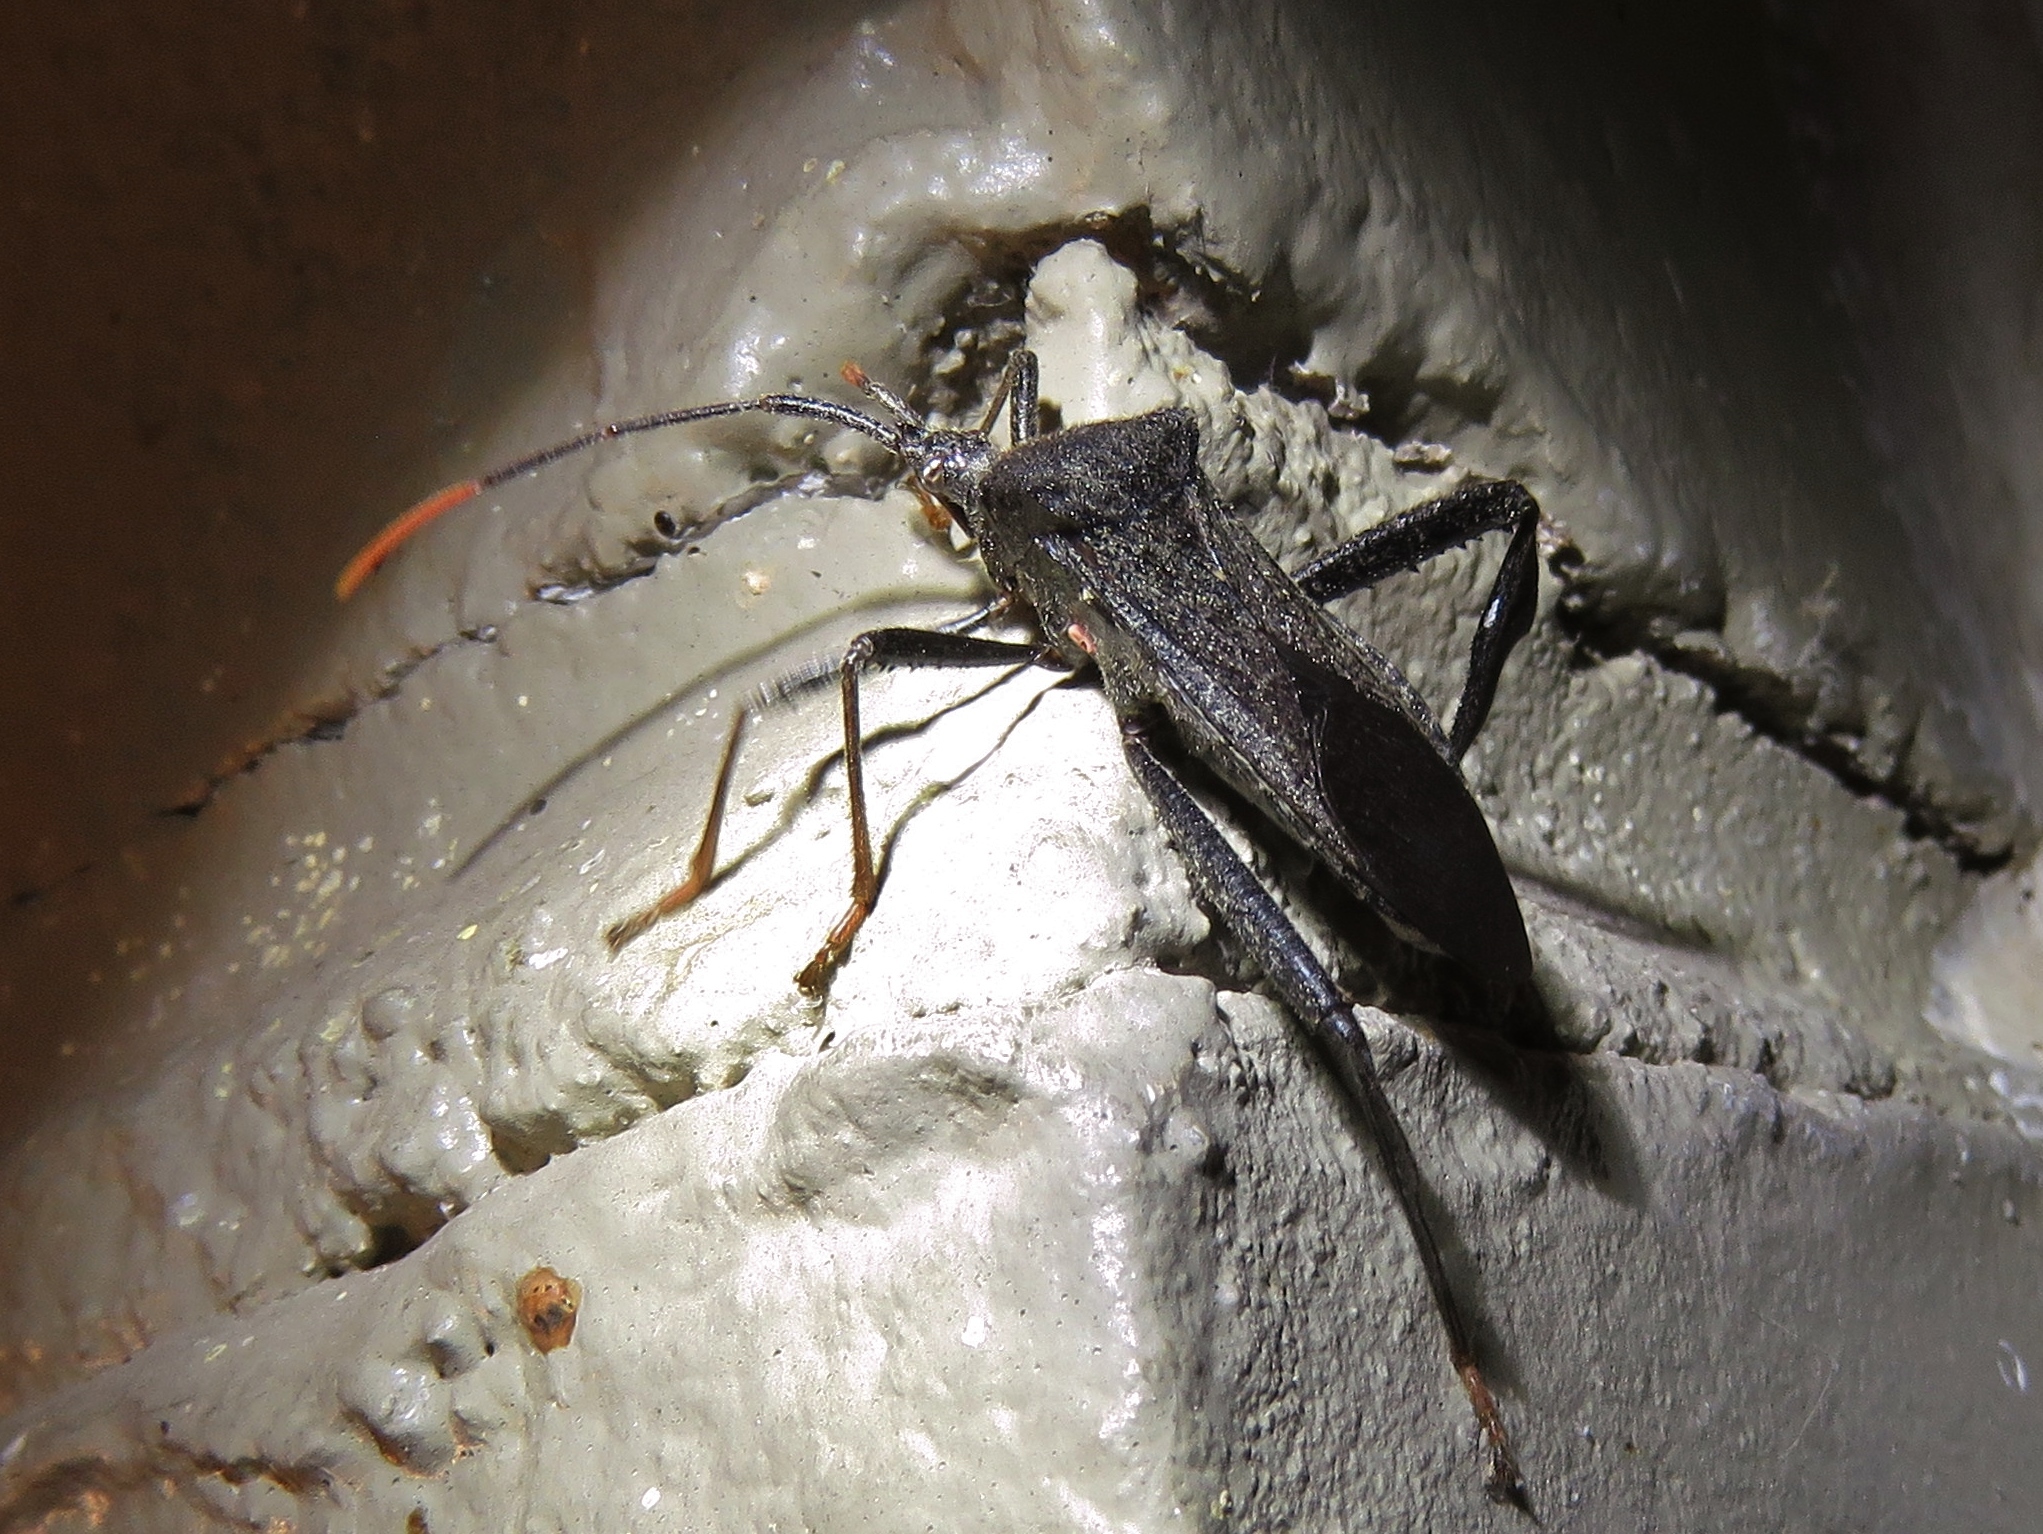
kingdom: Animalia
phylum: Arthropoda
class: Insecta
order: Hemiptera
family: Coreidae
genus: Acanthocephala
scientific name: Acanthocephala terminalis
